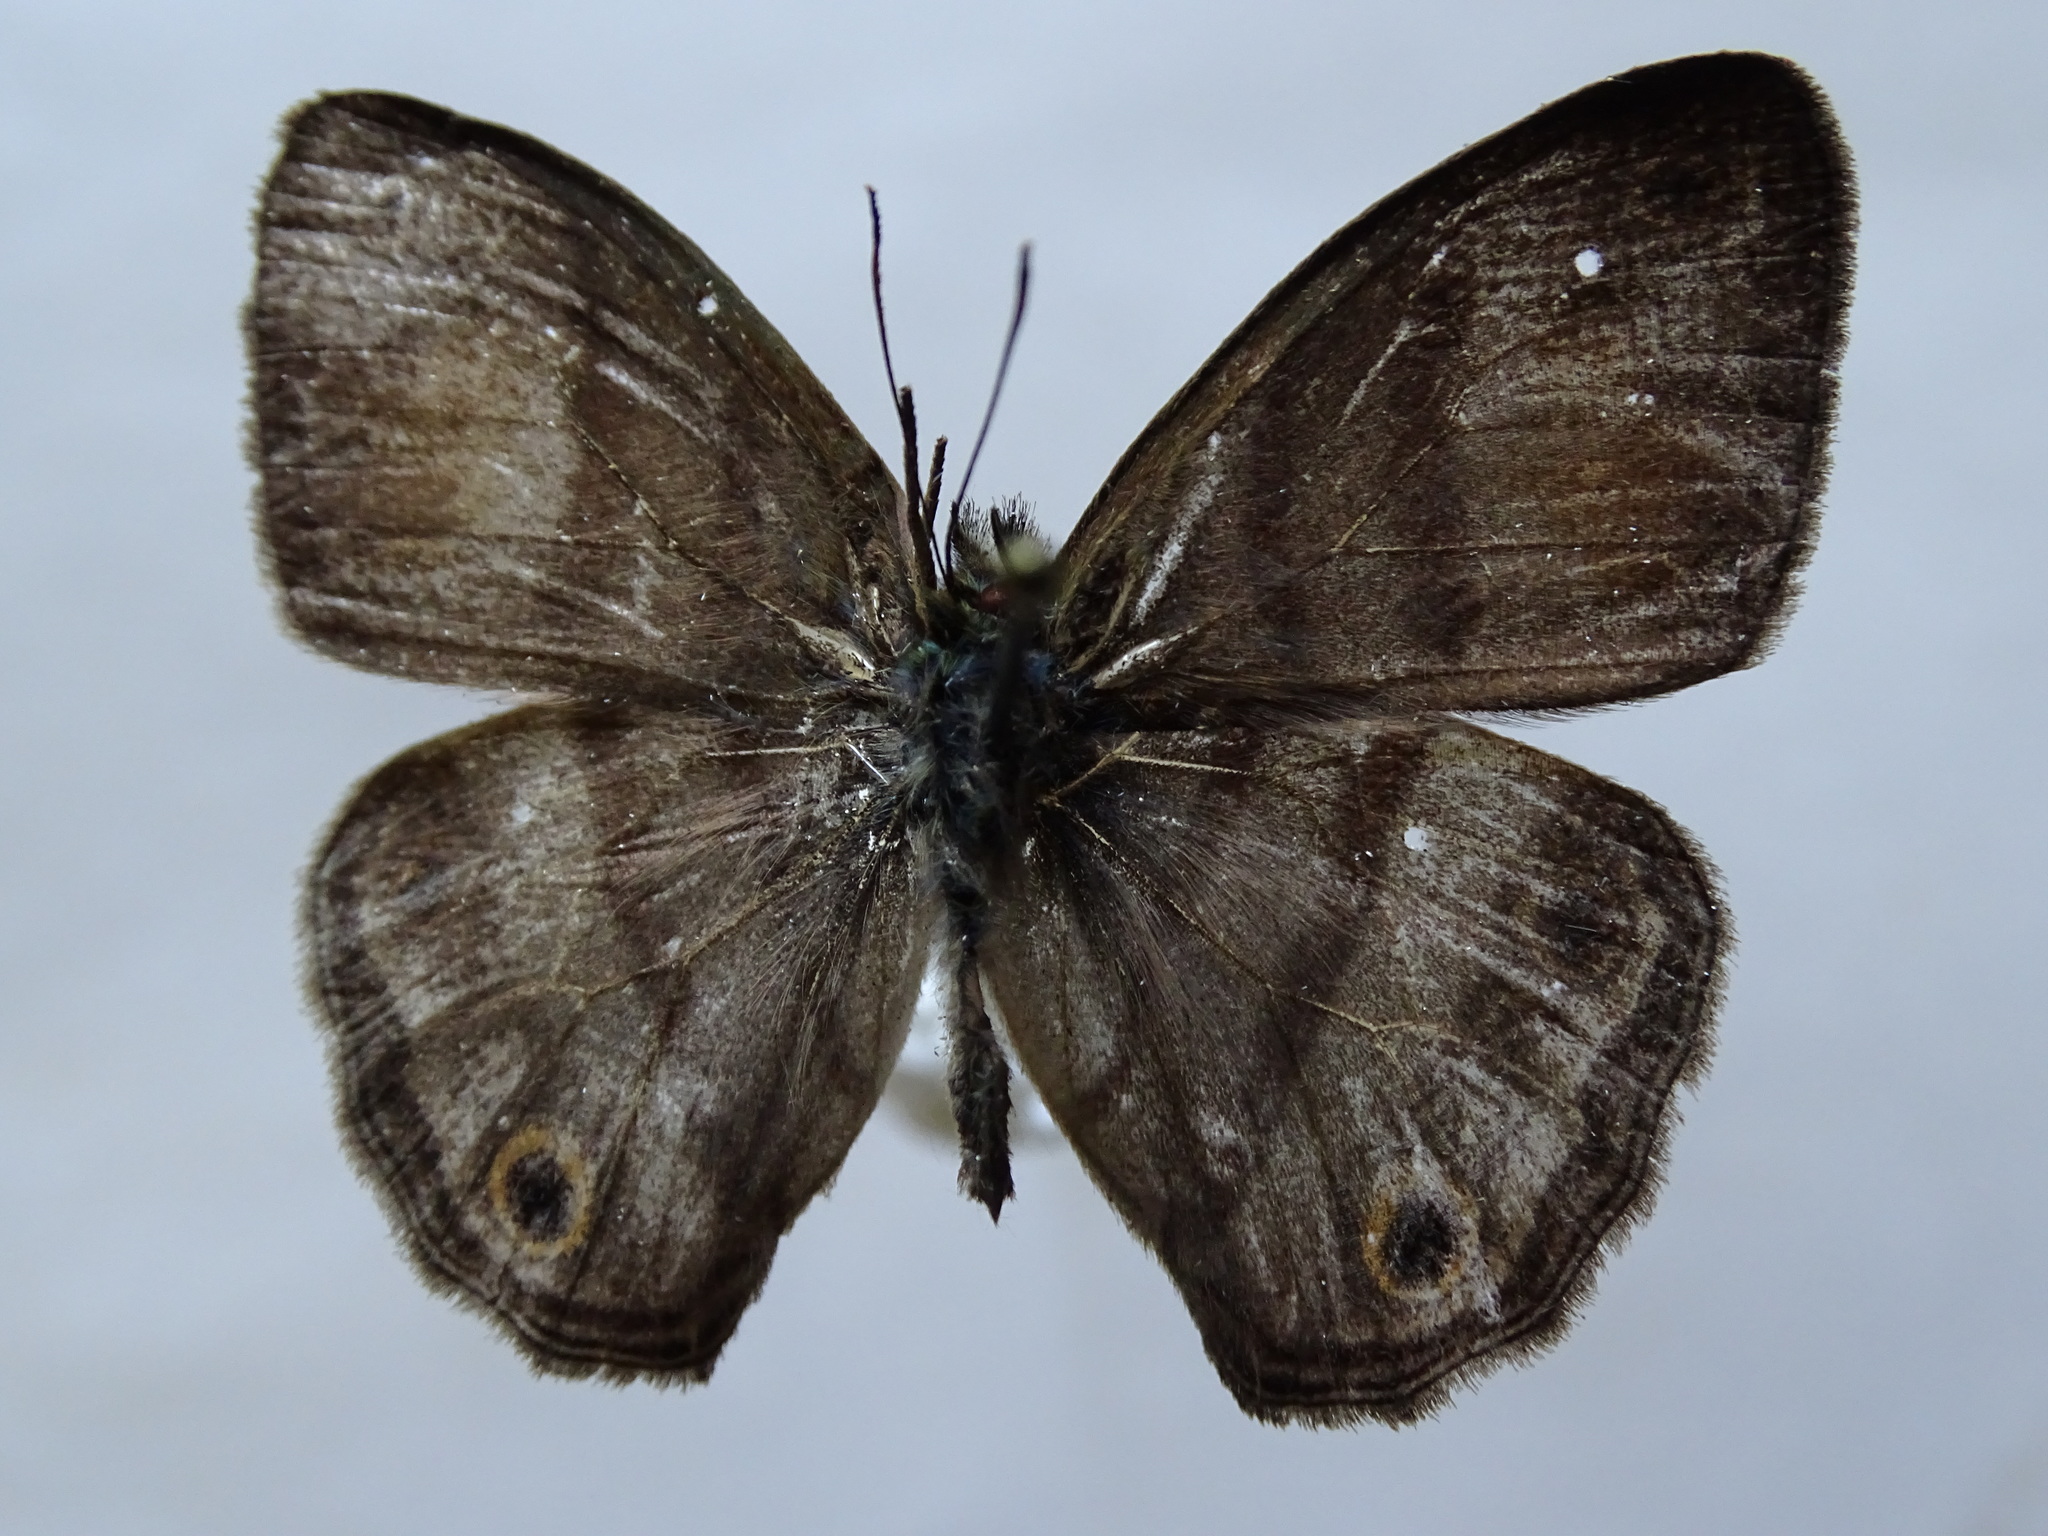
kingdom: Animalia
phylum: Arthropoda
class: Insecta
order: Lepidoptera
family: Nymphalidae
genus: Paryphthimoides
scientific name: Paryphthimoides
